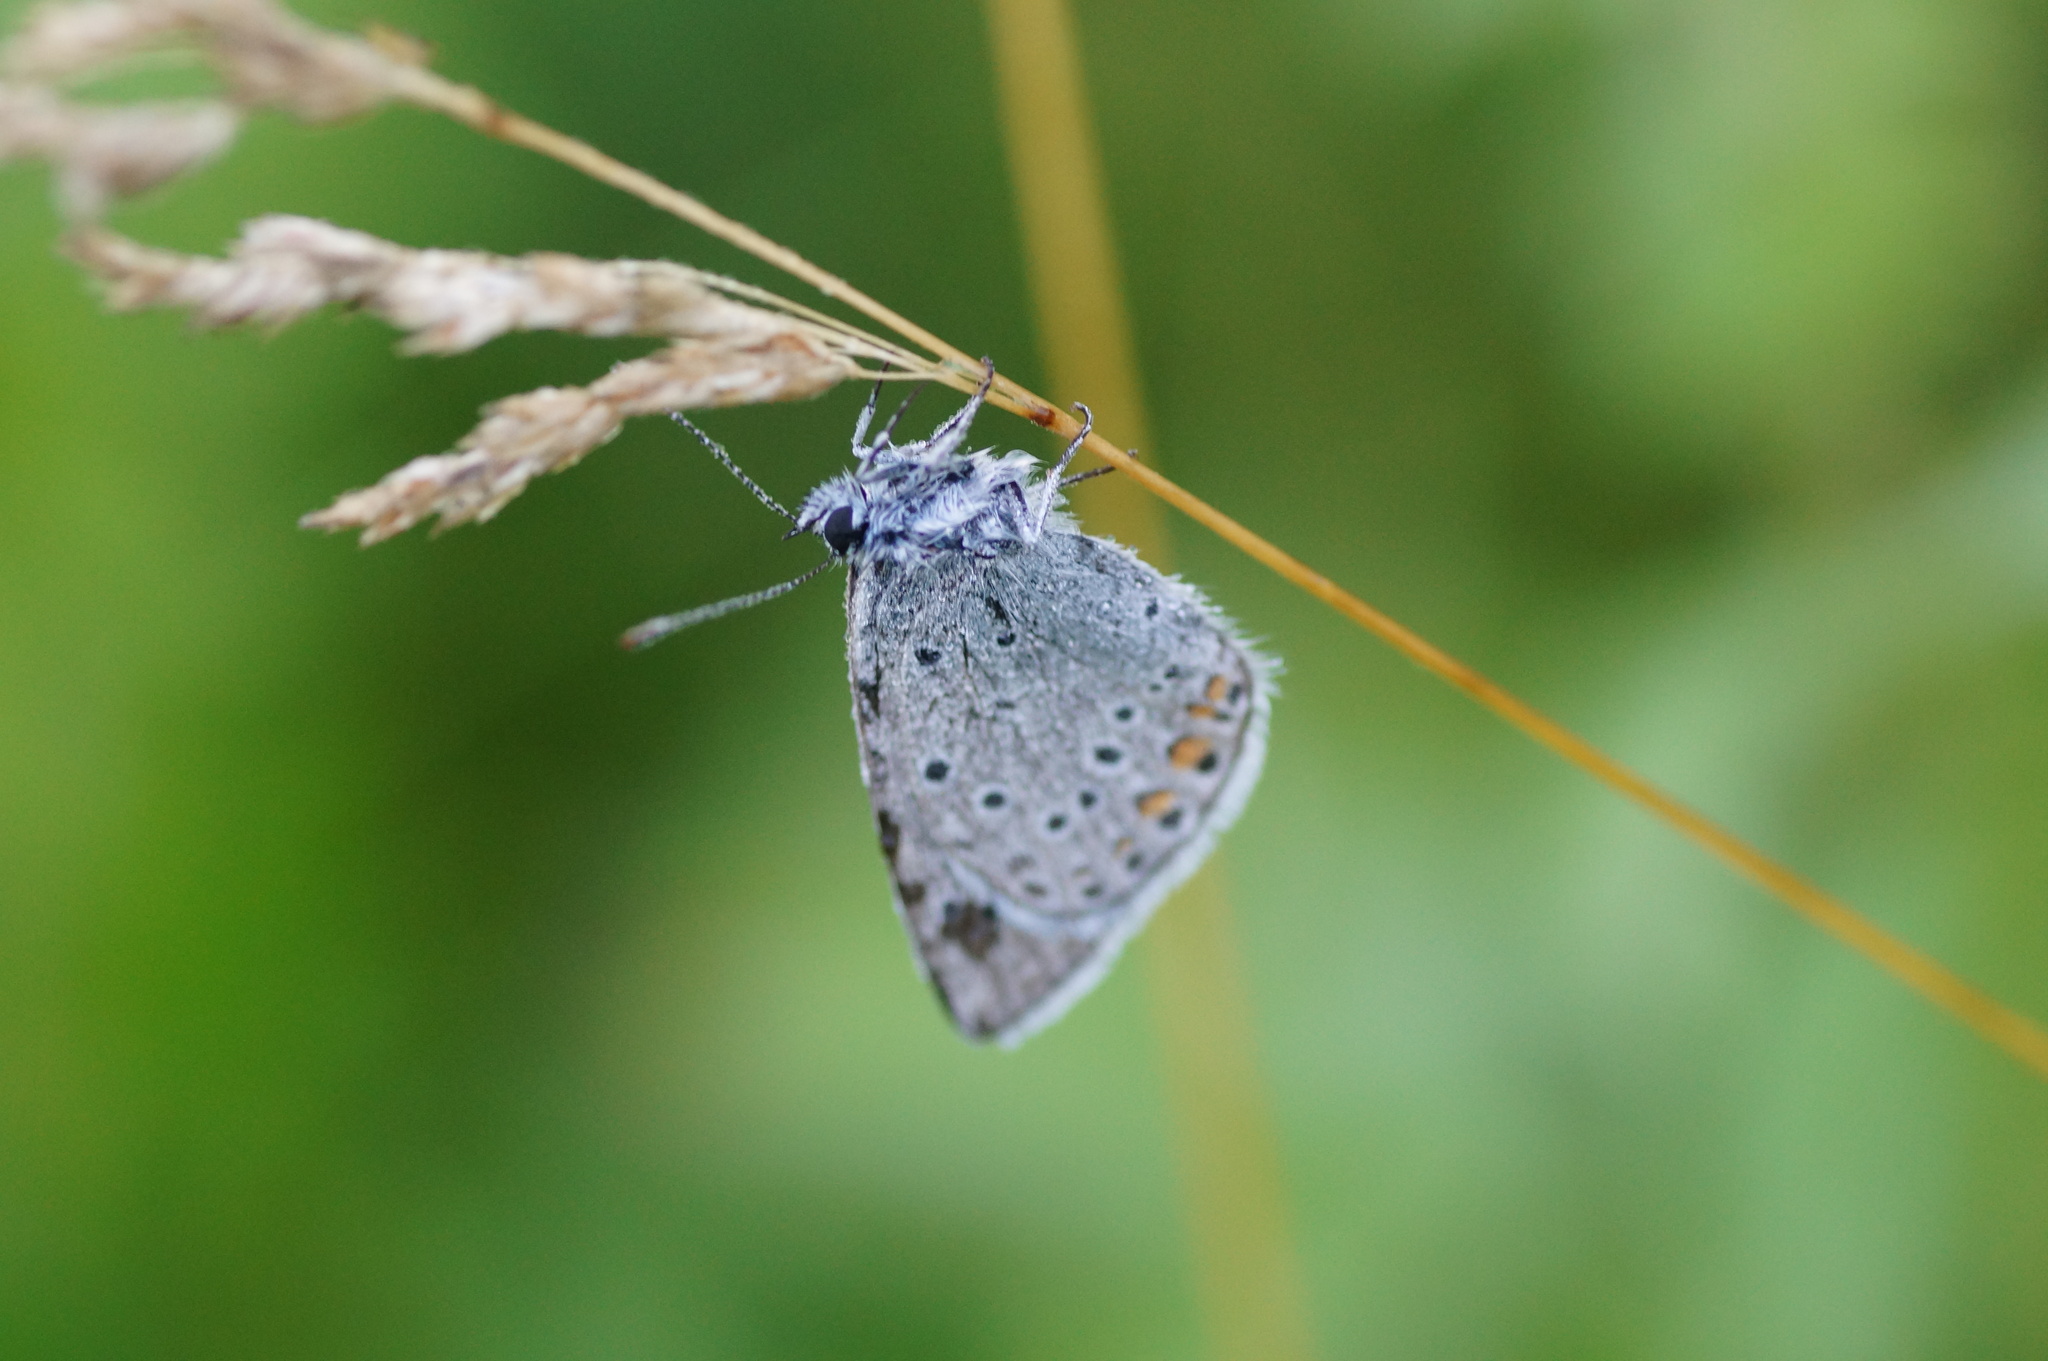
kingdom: Animalia
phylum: Arthropoda
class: Insecta
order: Lepidoptera
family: Lycaenidae
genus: Plebejus
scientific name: Plebejus amanda
